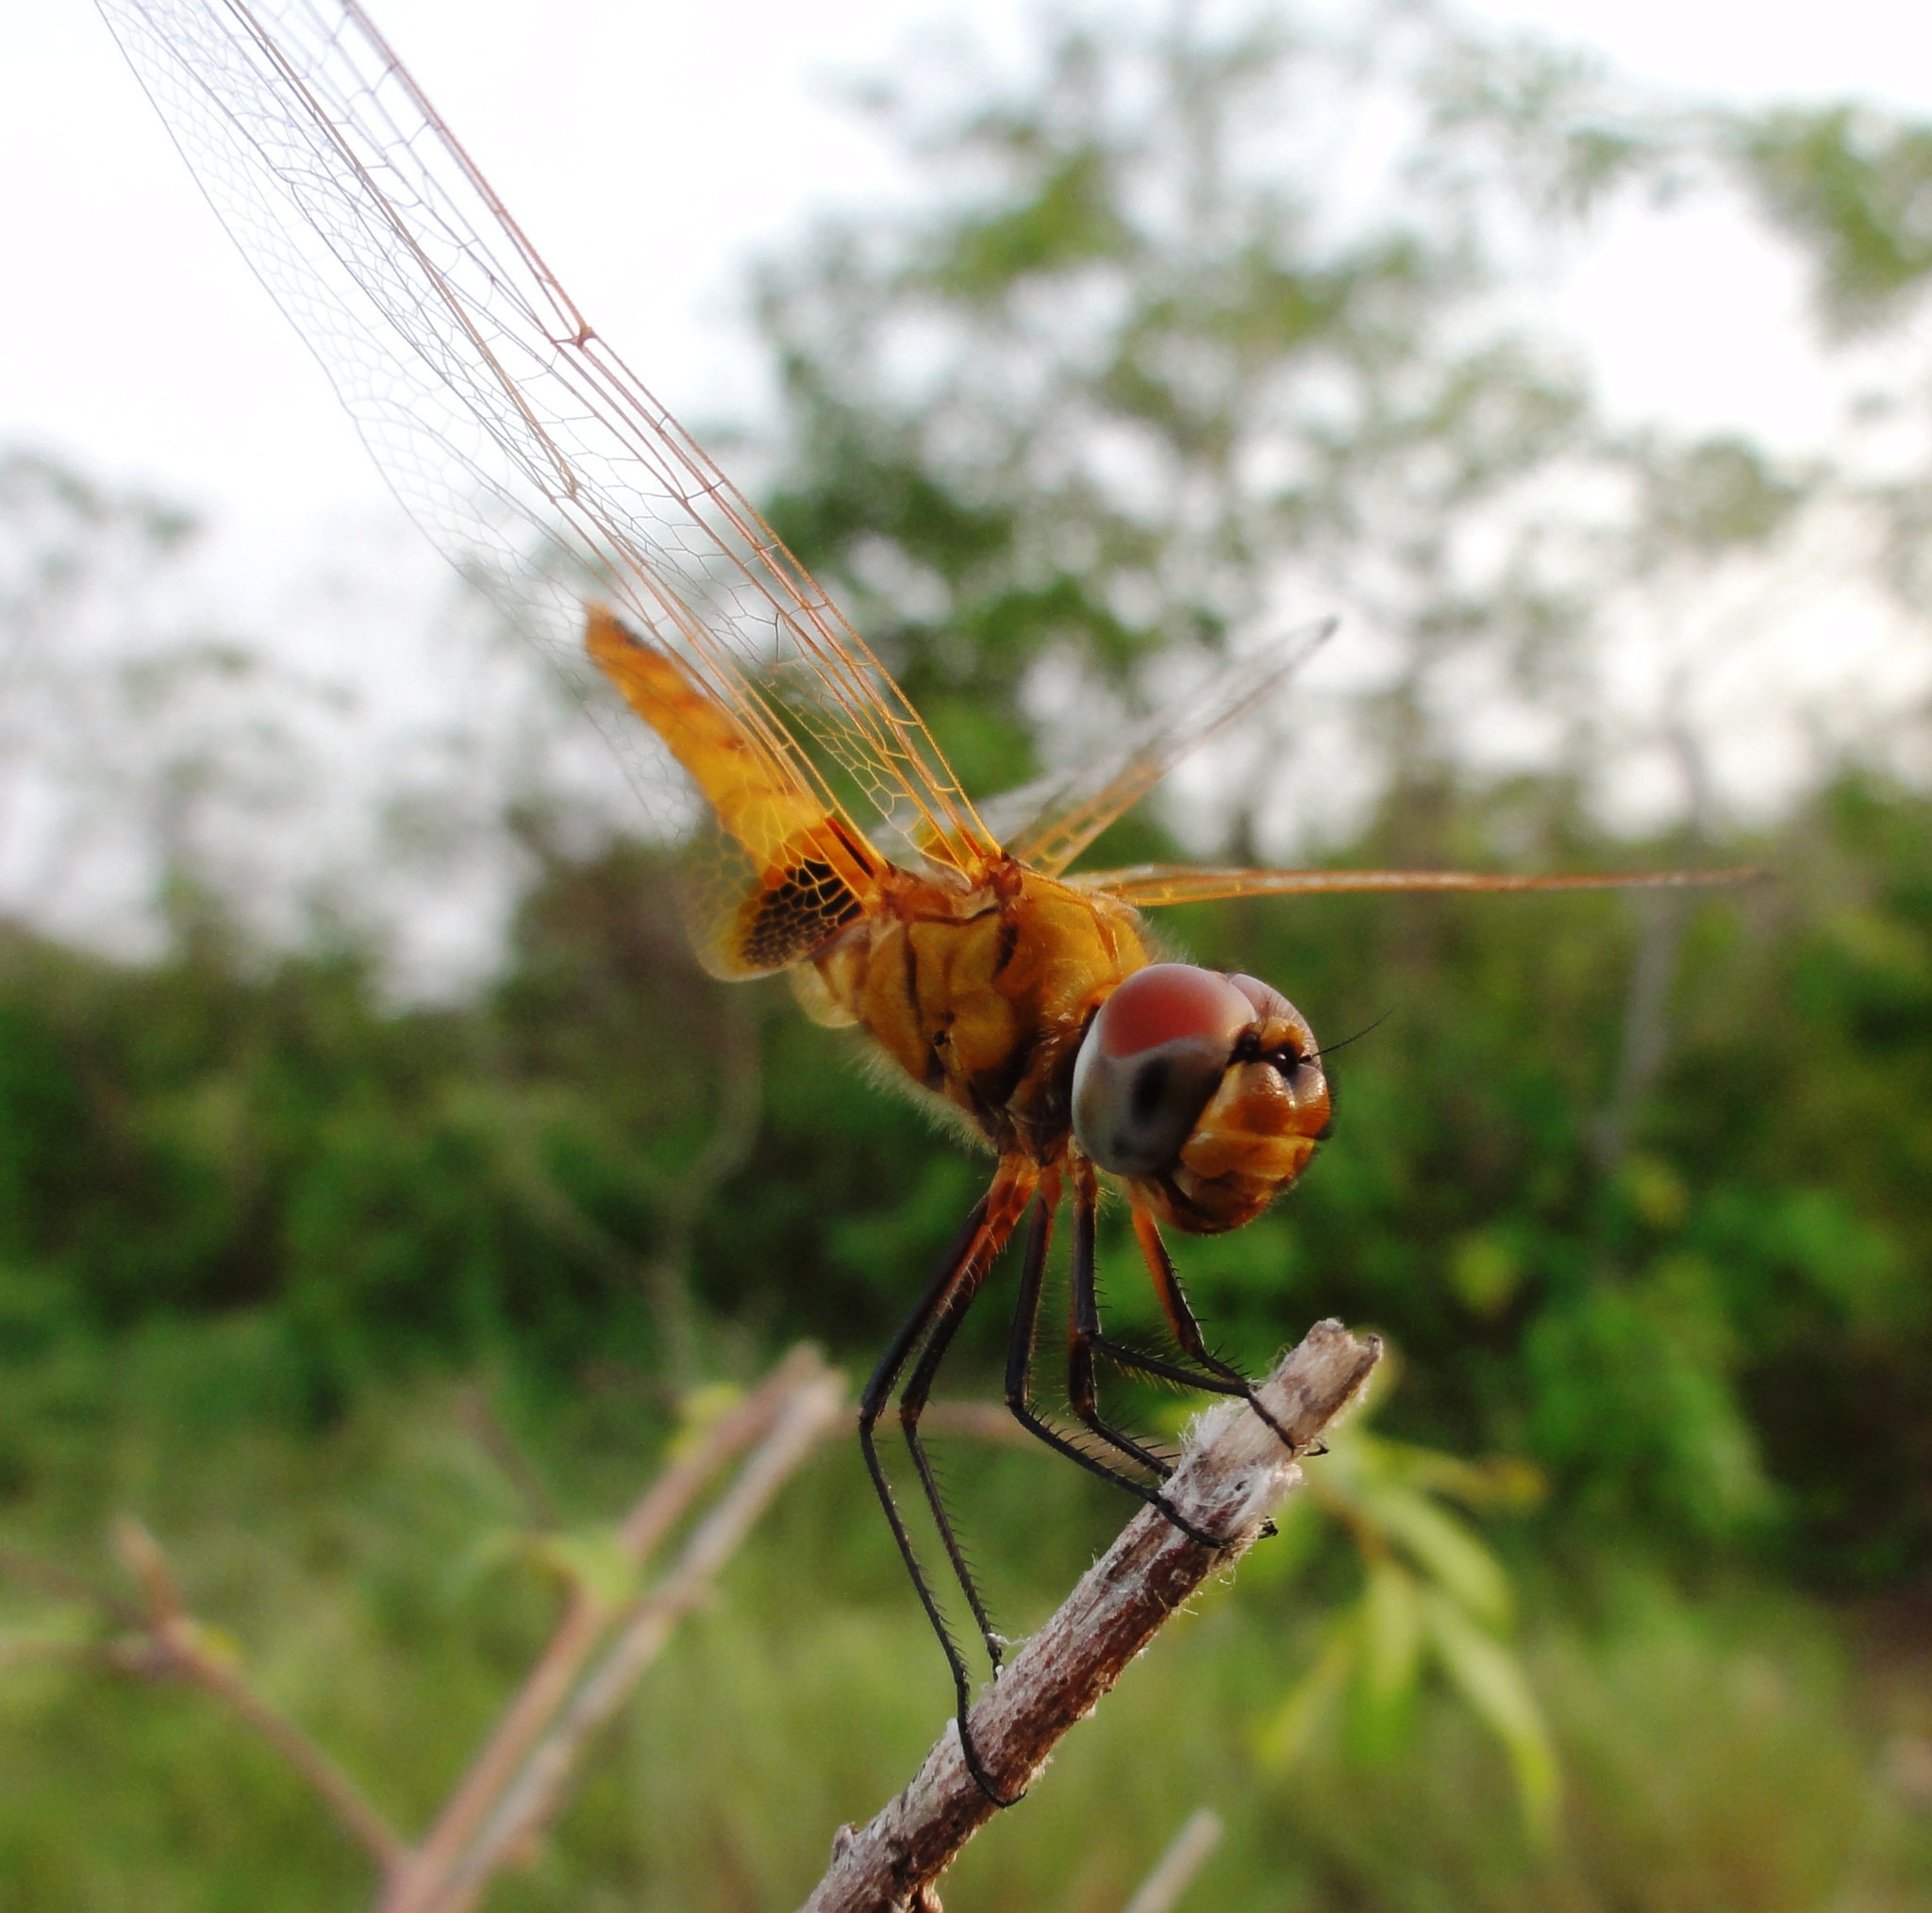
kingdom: Animalia
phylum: Arthropoda
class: Insecta
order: Odonata
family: Libellulidae
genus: Aethriamanta
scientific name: Aethriamanta aethra
